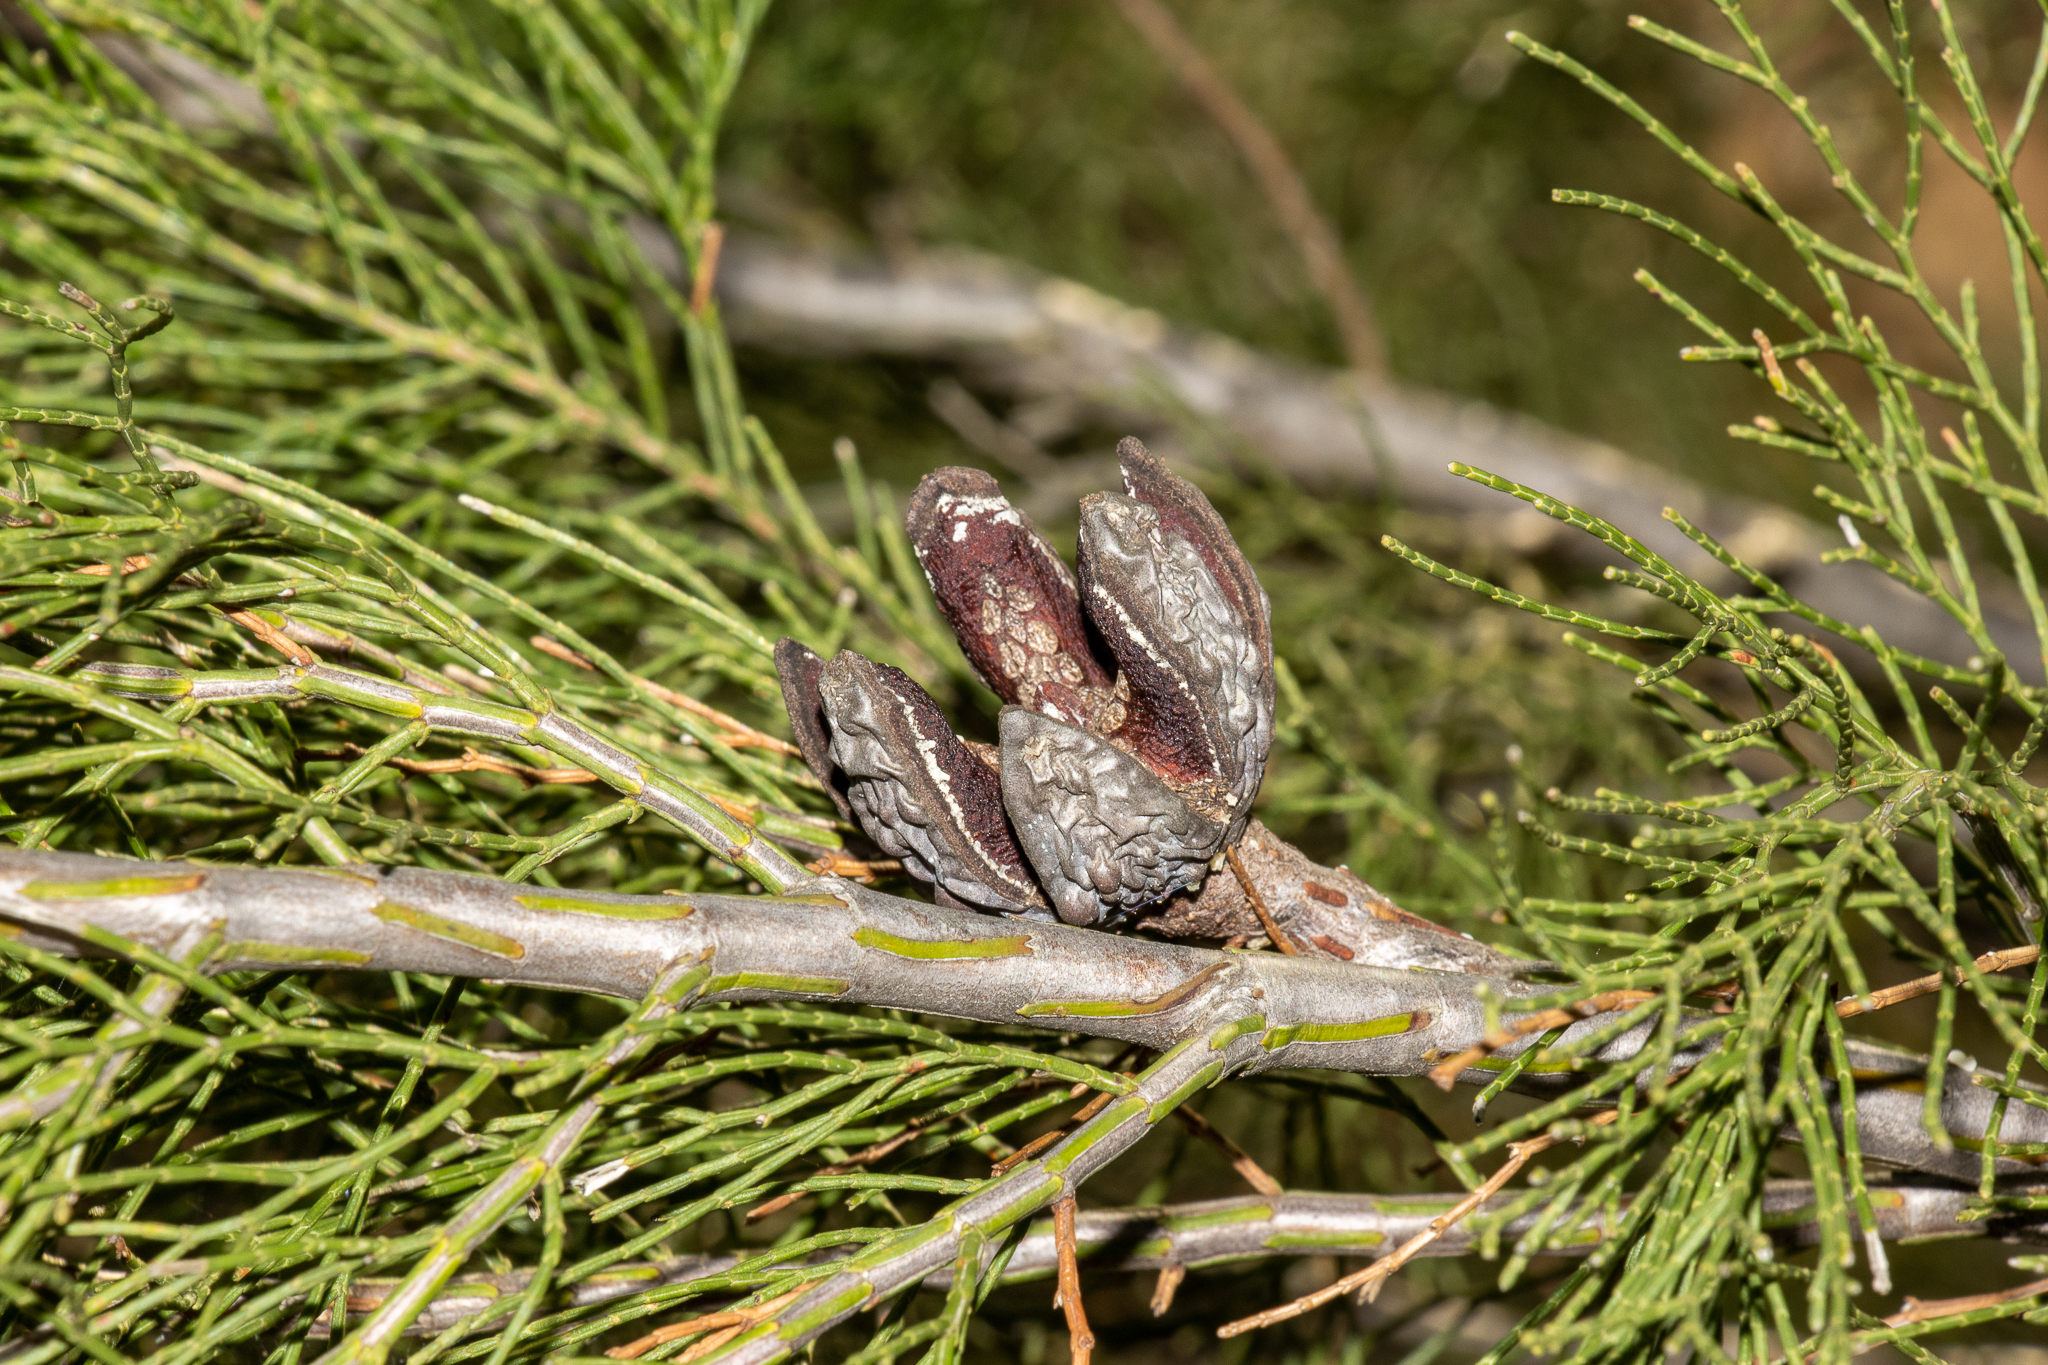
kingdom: Plantae
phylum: Tracheophyta
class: Pinopsida
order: Pinales
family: Cupressaceae
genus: Callitris
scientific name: Callitris preissii
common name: Mallee pine
